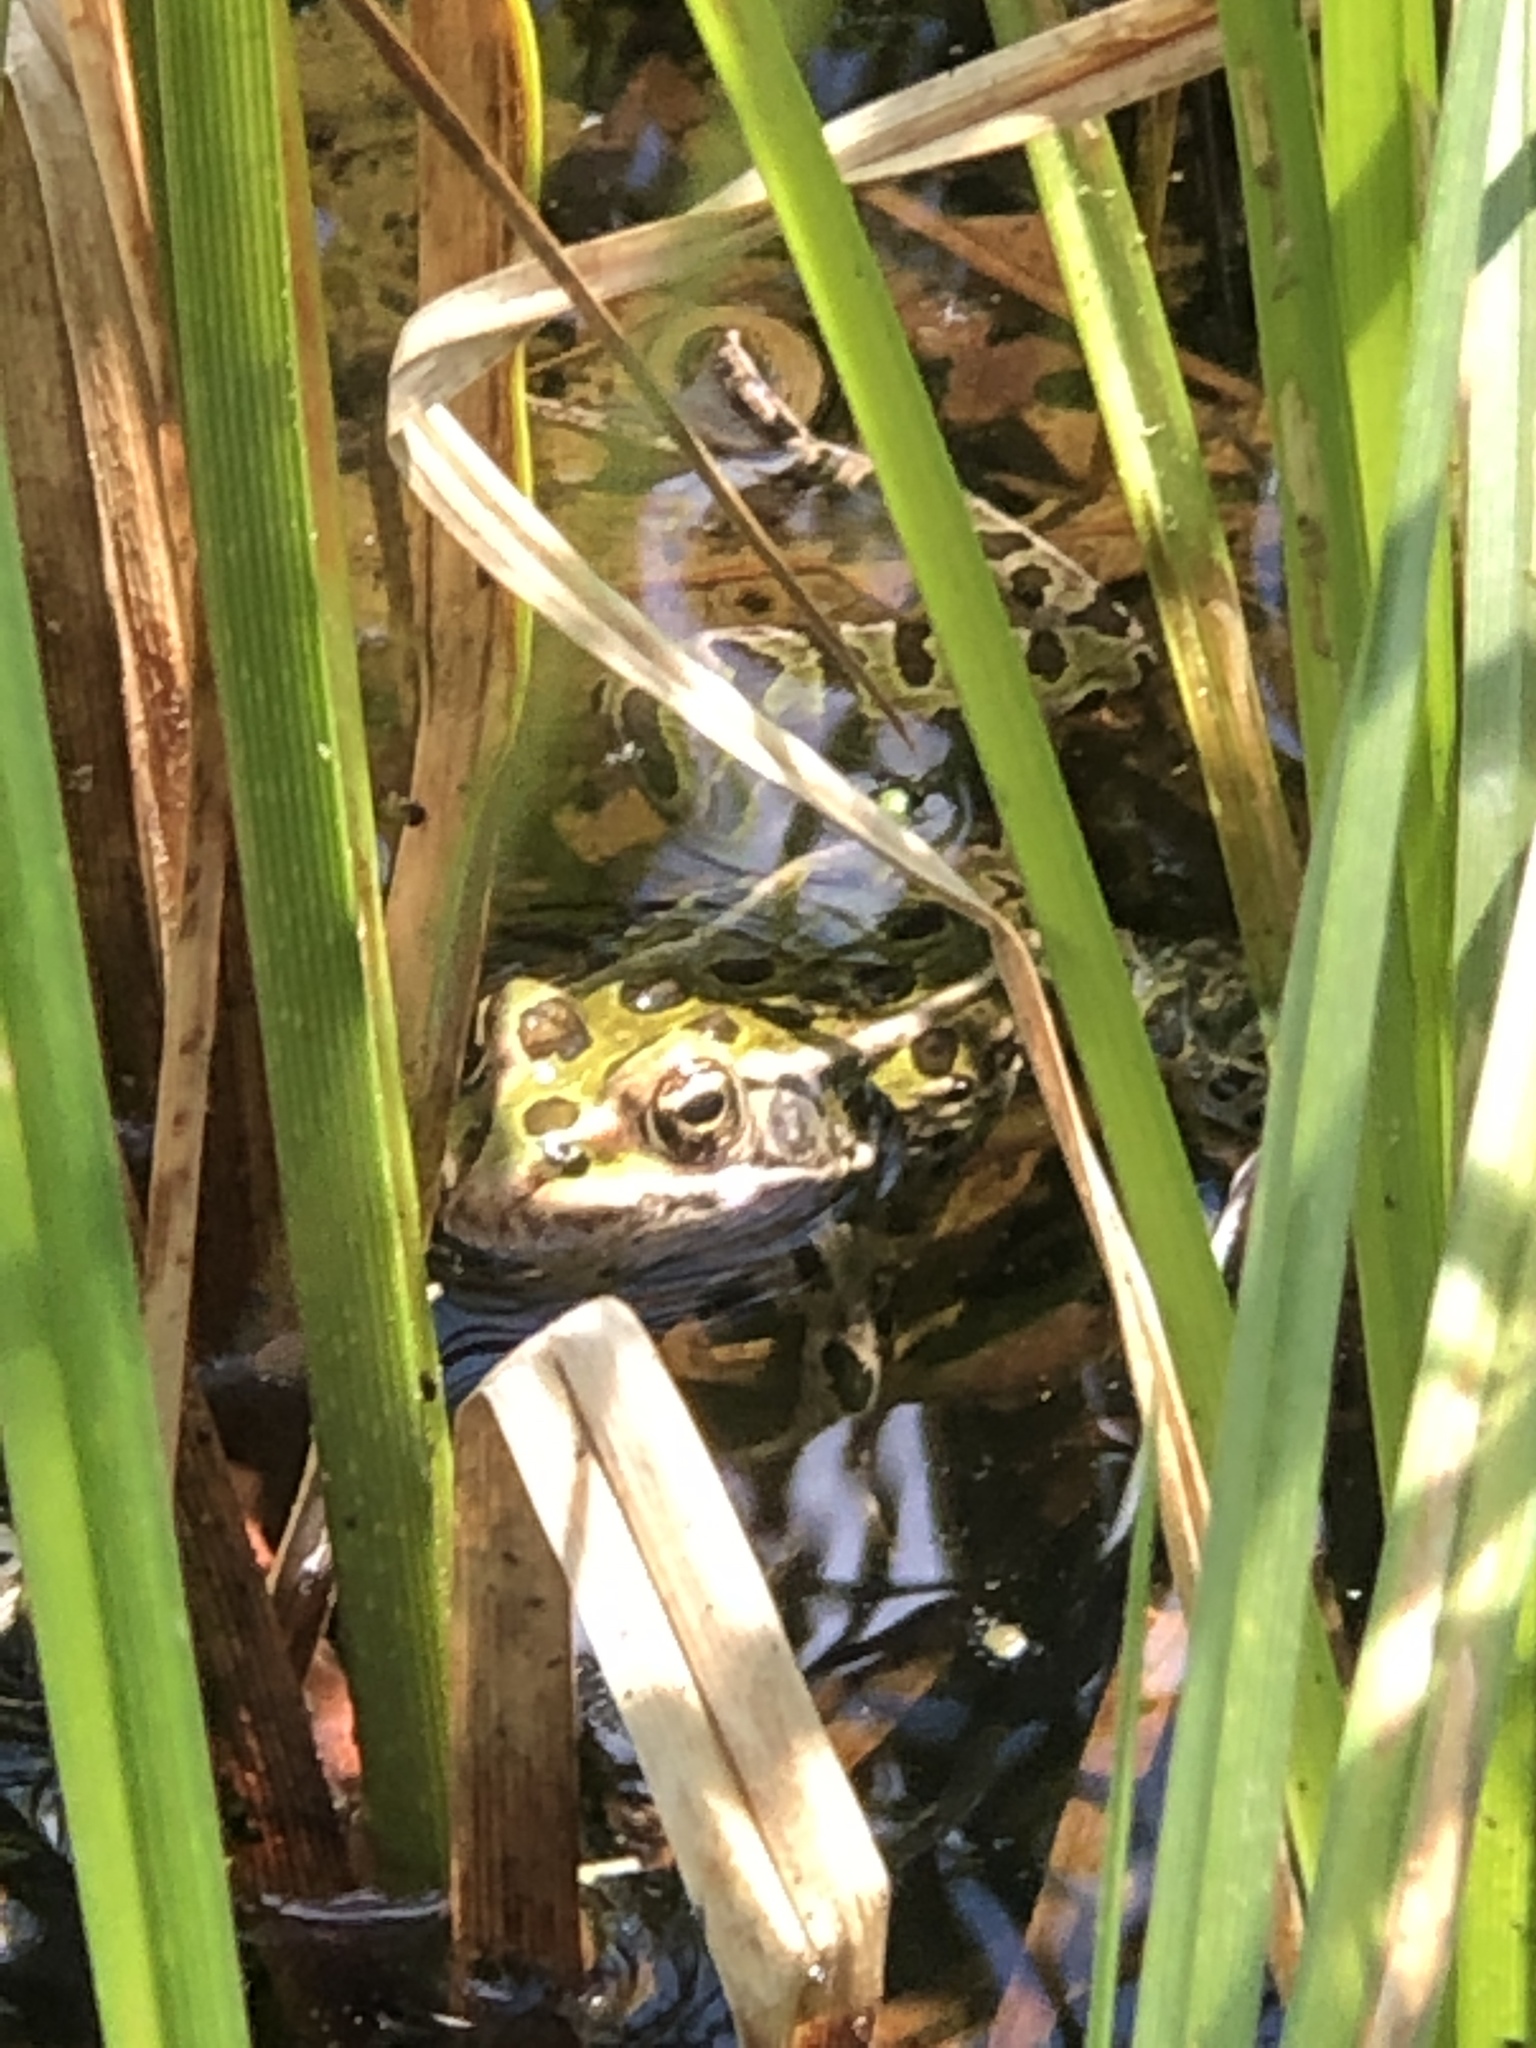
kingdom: Animalia
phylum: Chordata
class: Amphibia
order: Anura
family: Ranidae
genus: Lithobates
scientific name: Lithobates pipiens
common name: Northern leopard frog
